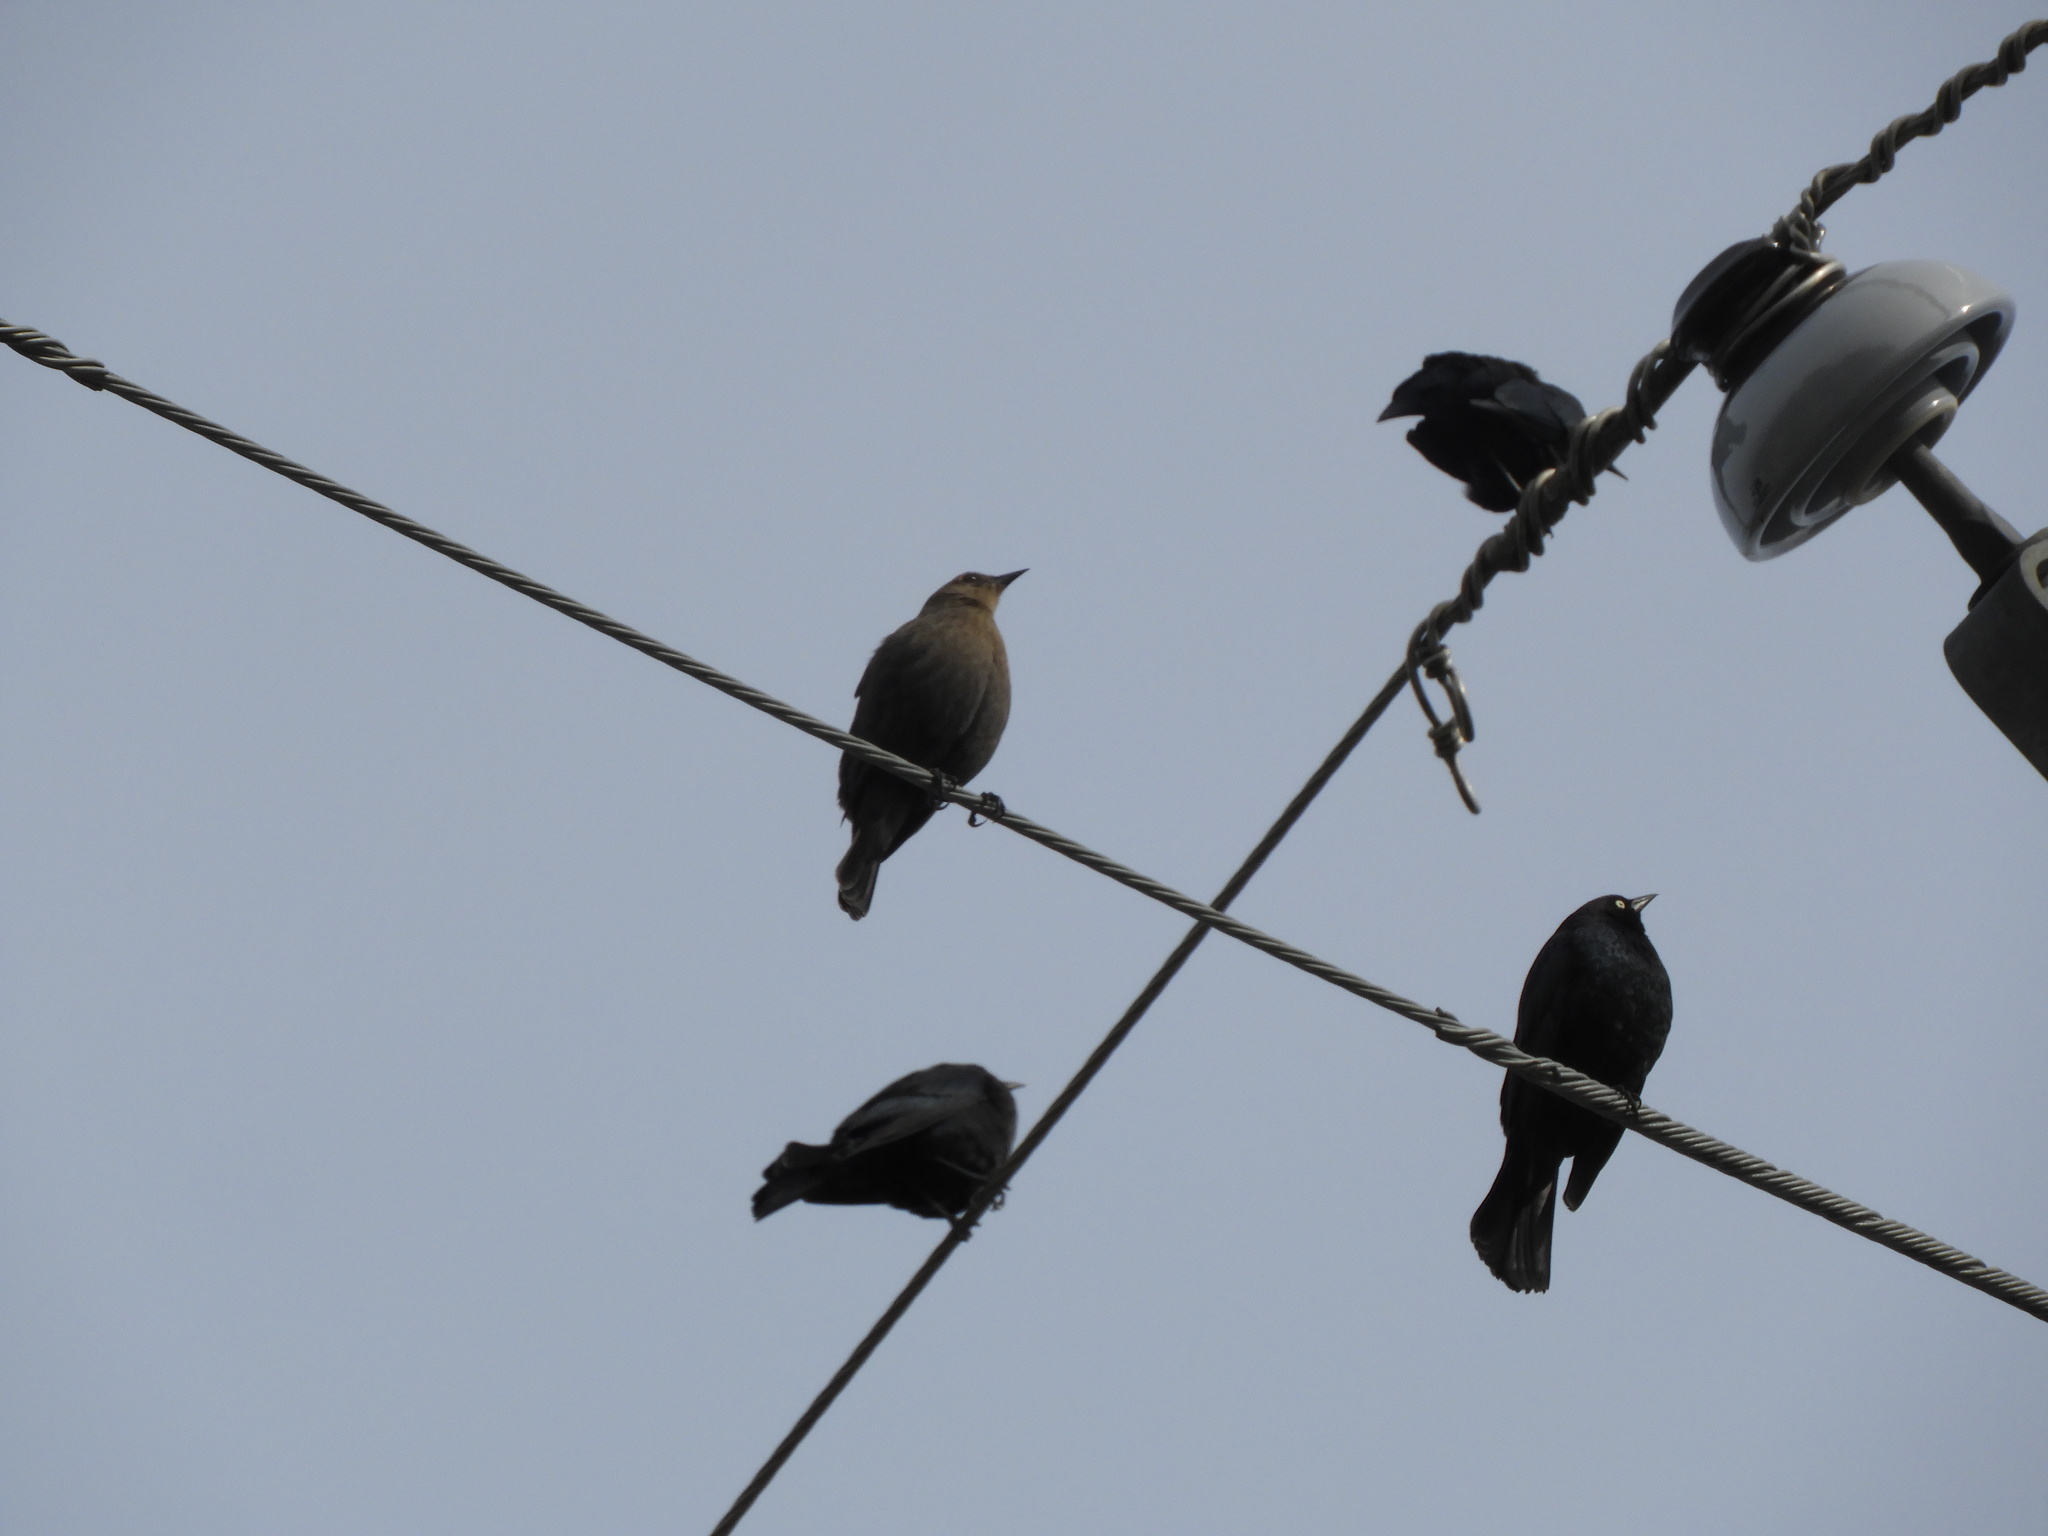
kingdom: Animalia
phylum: Chordata
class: Aves
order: Passeriformes
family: Icteridae
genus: Euphagus
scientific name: Euphagus cyanocephalus
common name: Brewer's blackbird
